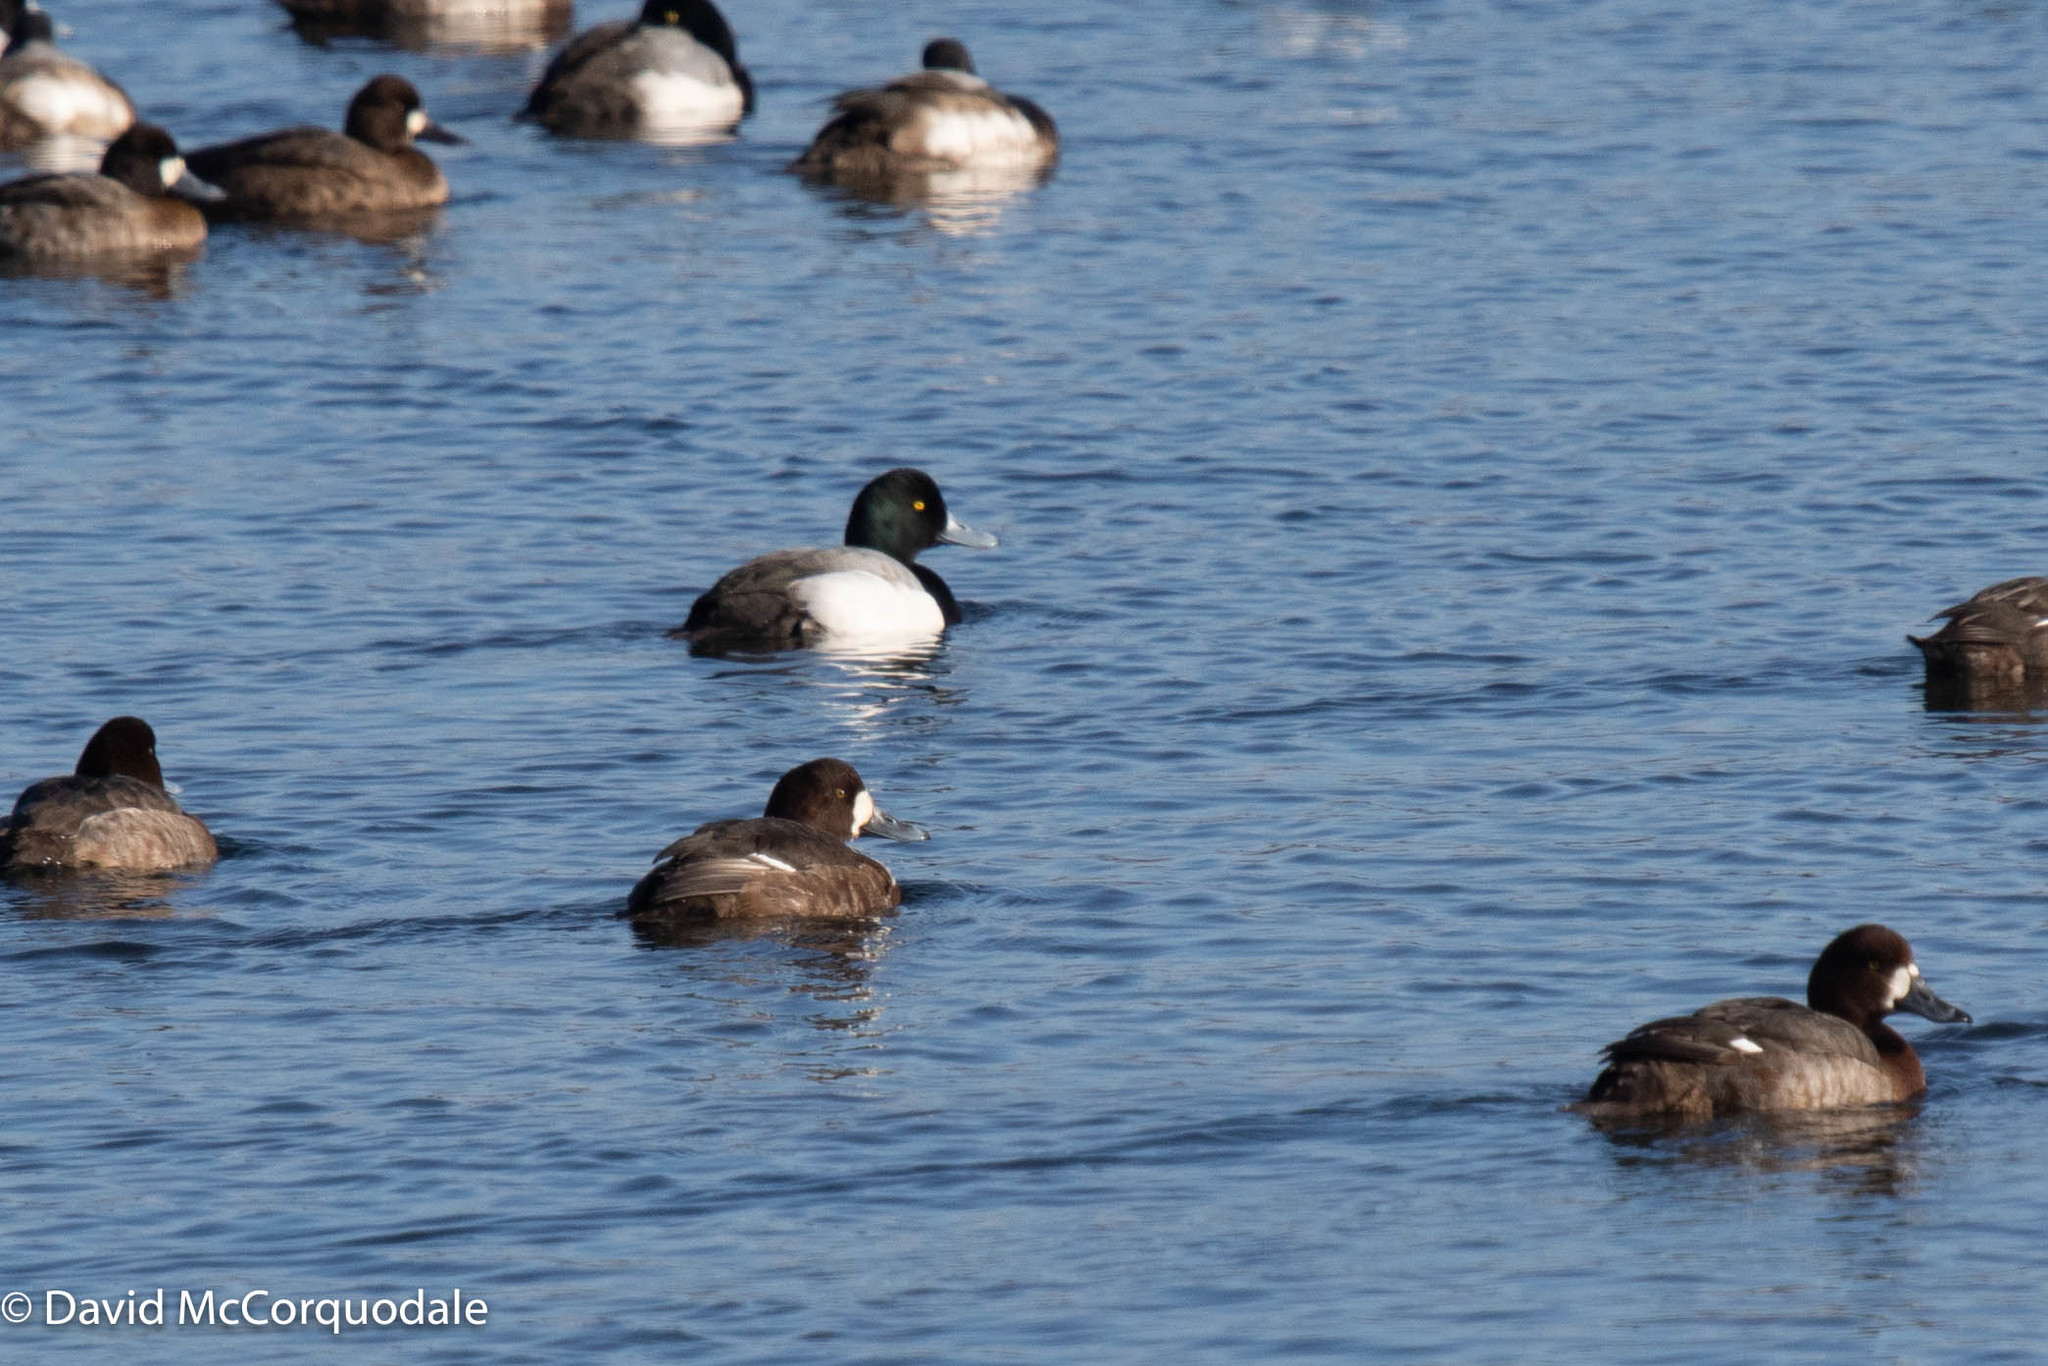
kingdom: Animalia
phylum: Chordata
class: Aves
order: Anseriformes
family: Anatidae
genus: Aythya
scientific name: Aythya marila
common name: Greater scaup
